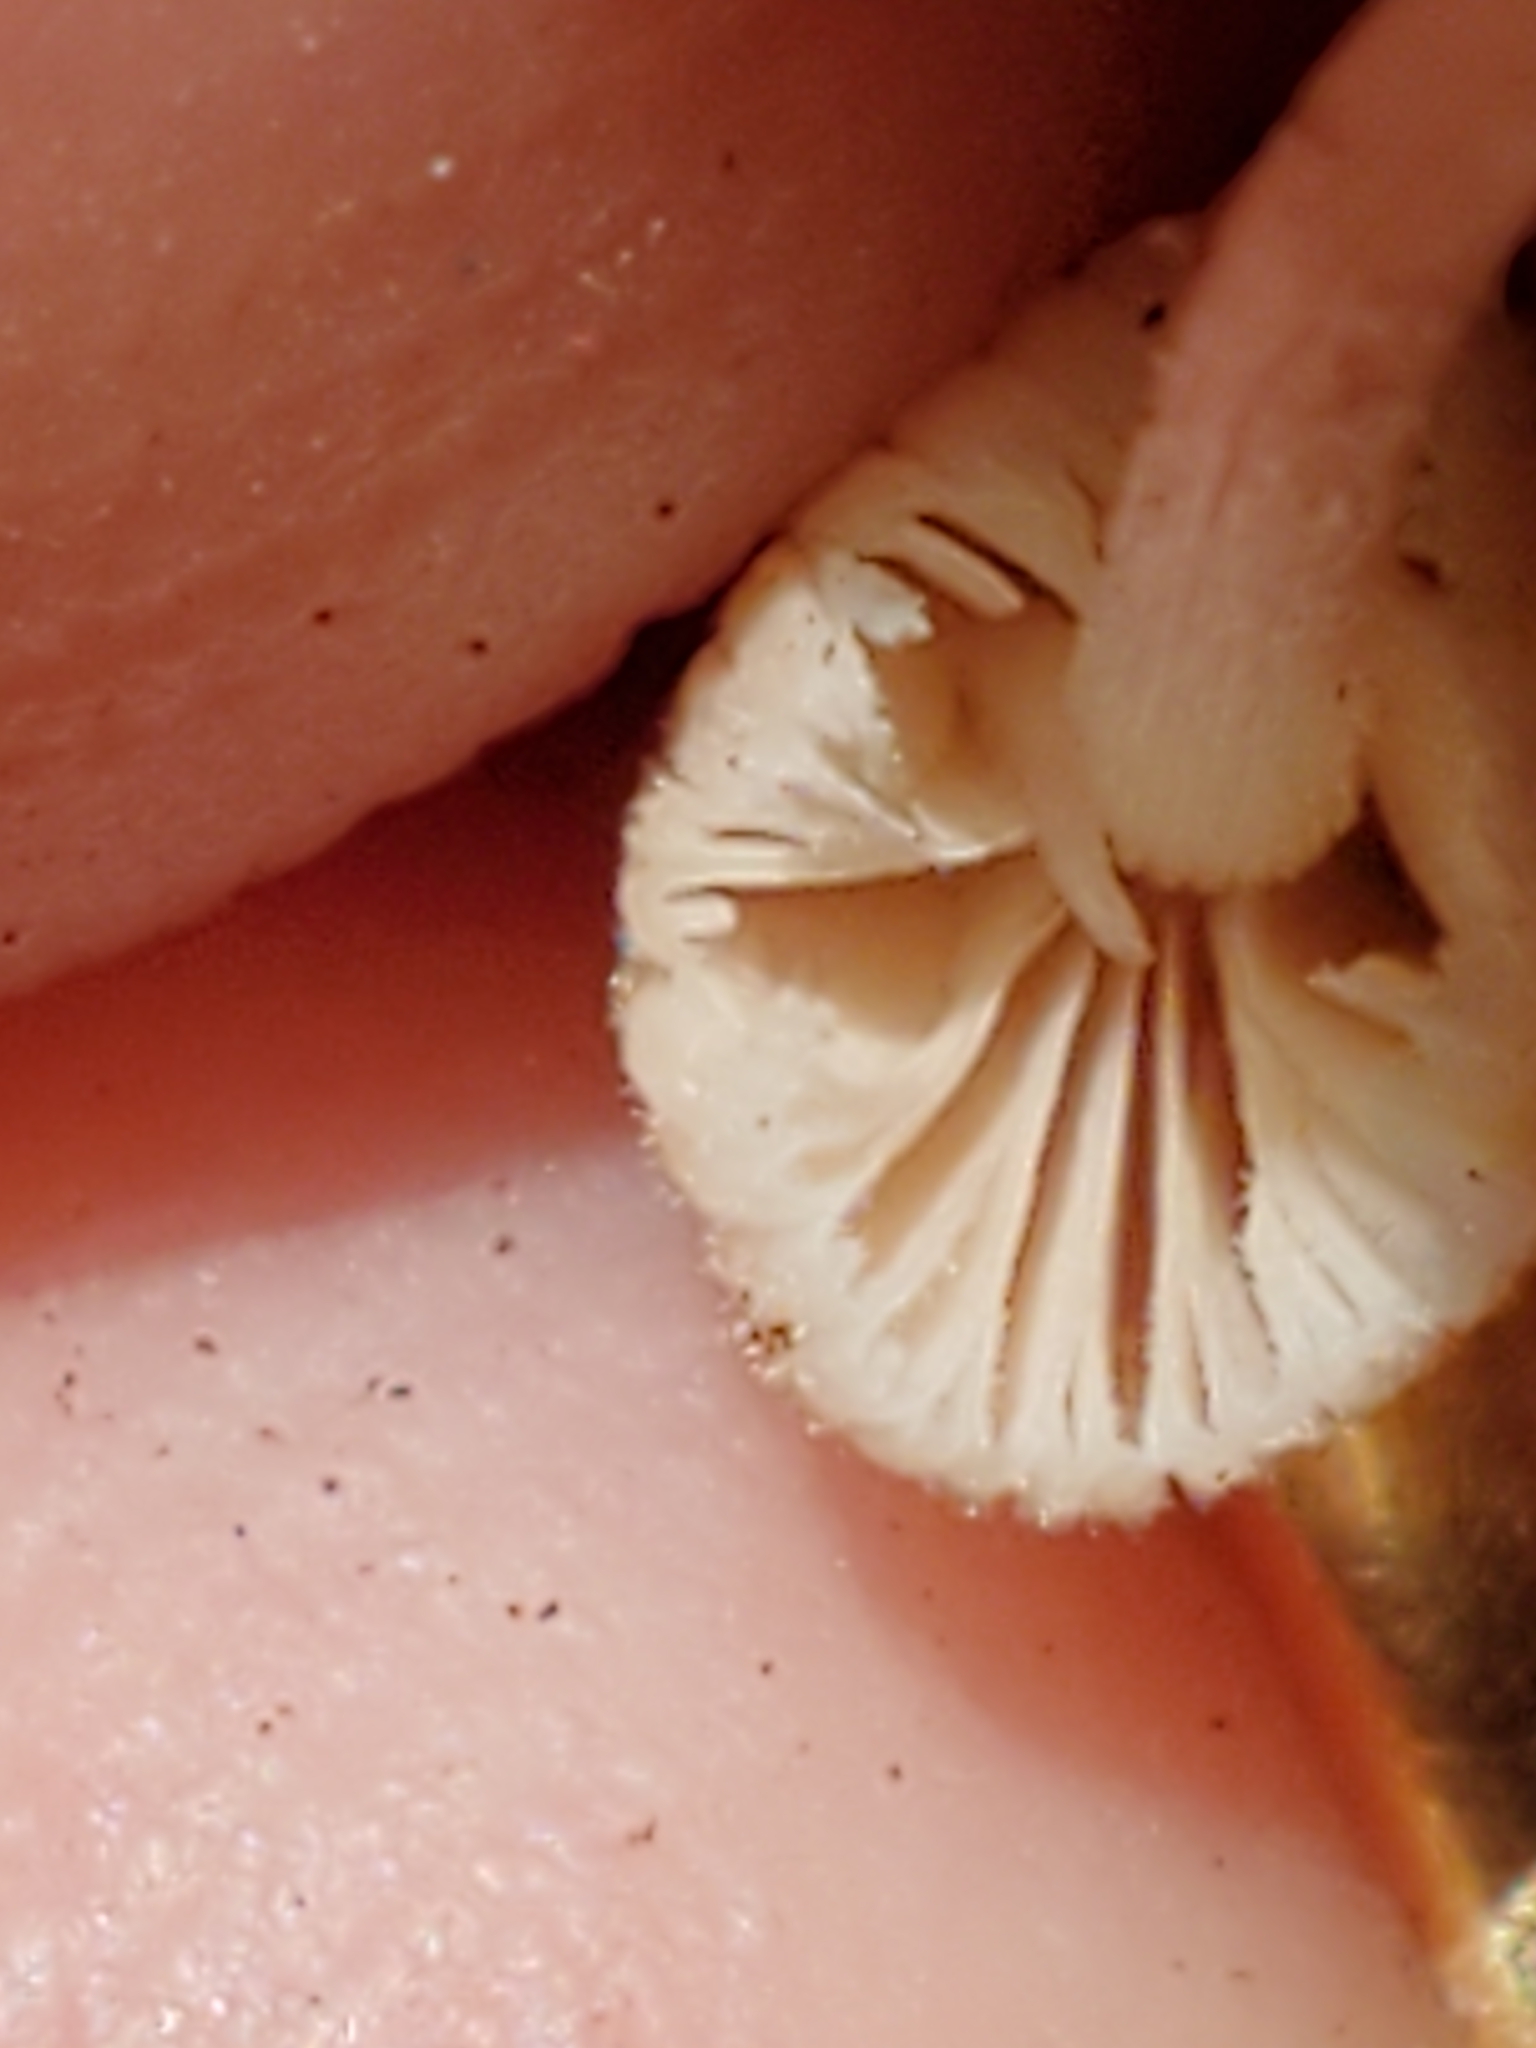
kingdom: Fungi
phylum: Basidiomycota
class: Agaricomycetes
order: Agaricales
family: Psathyrellaceae
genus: Coprinellus
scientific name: Coprinellus disseminatus
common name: Fairies' bonnets
